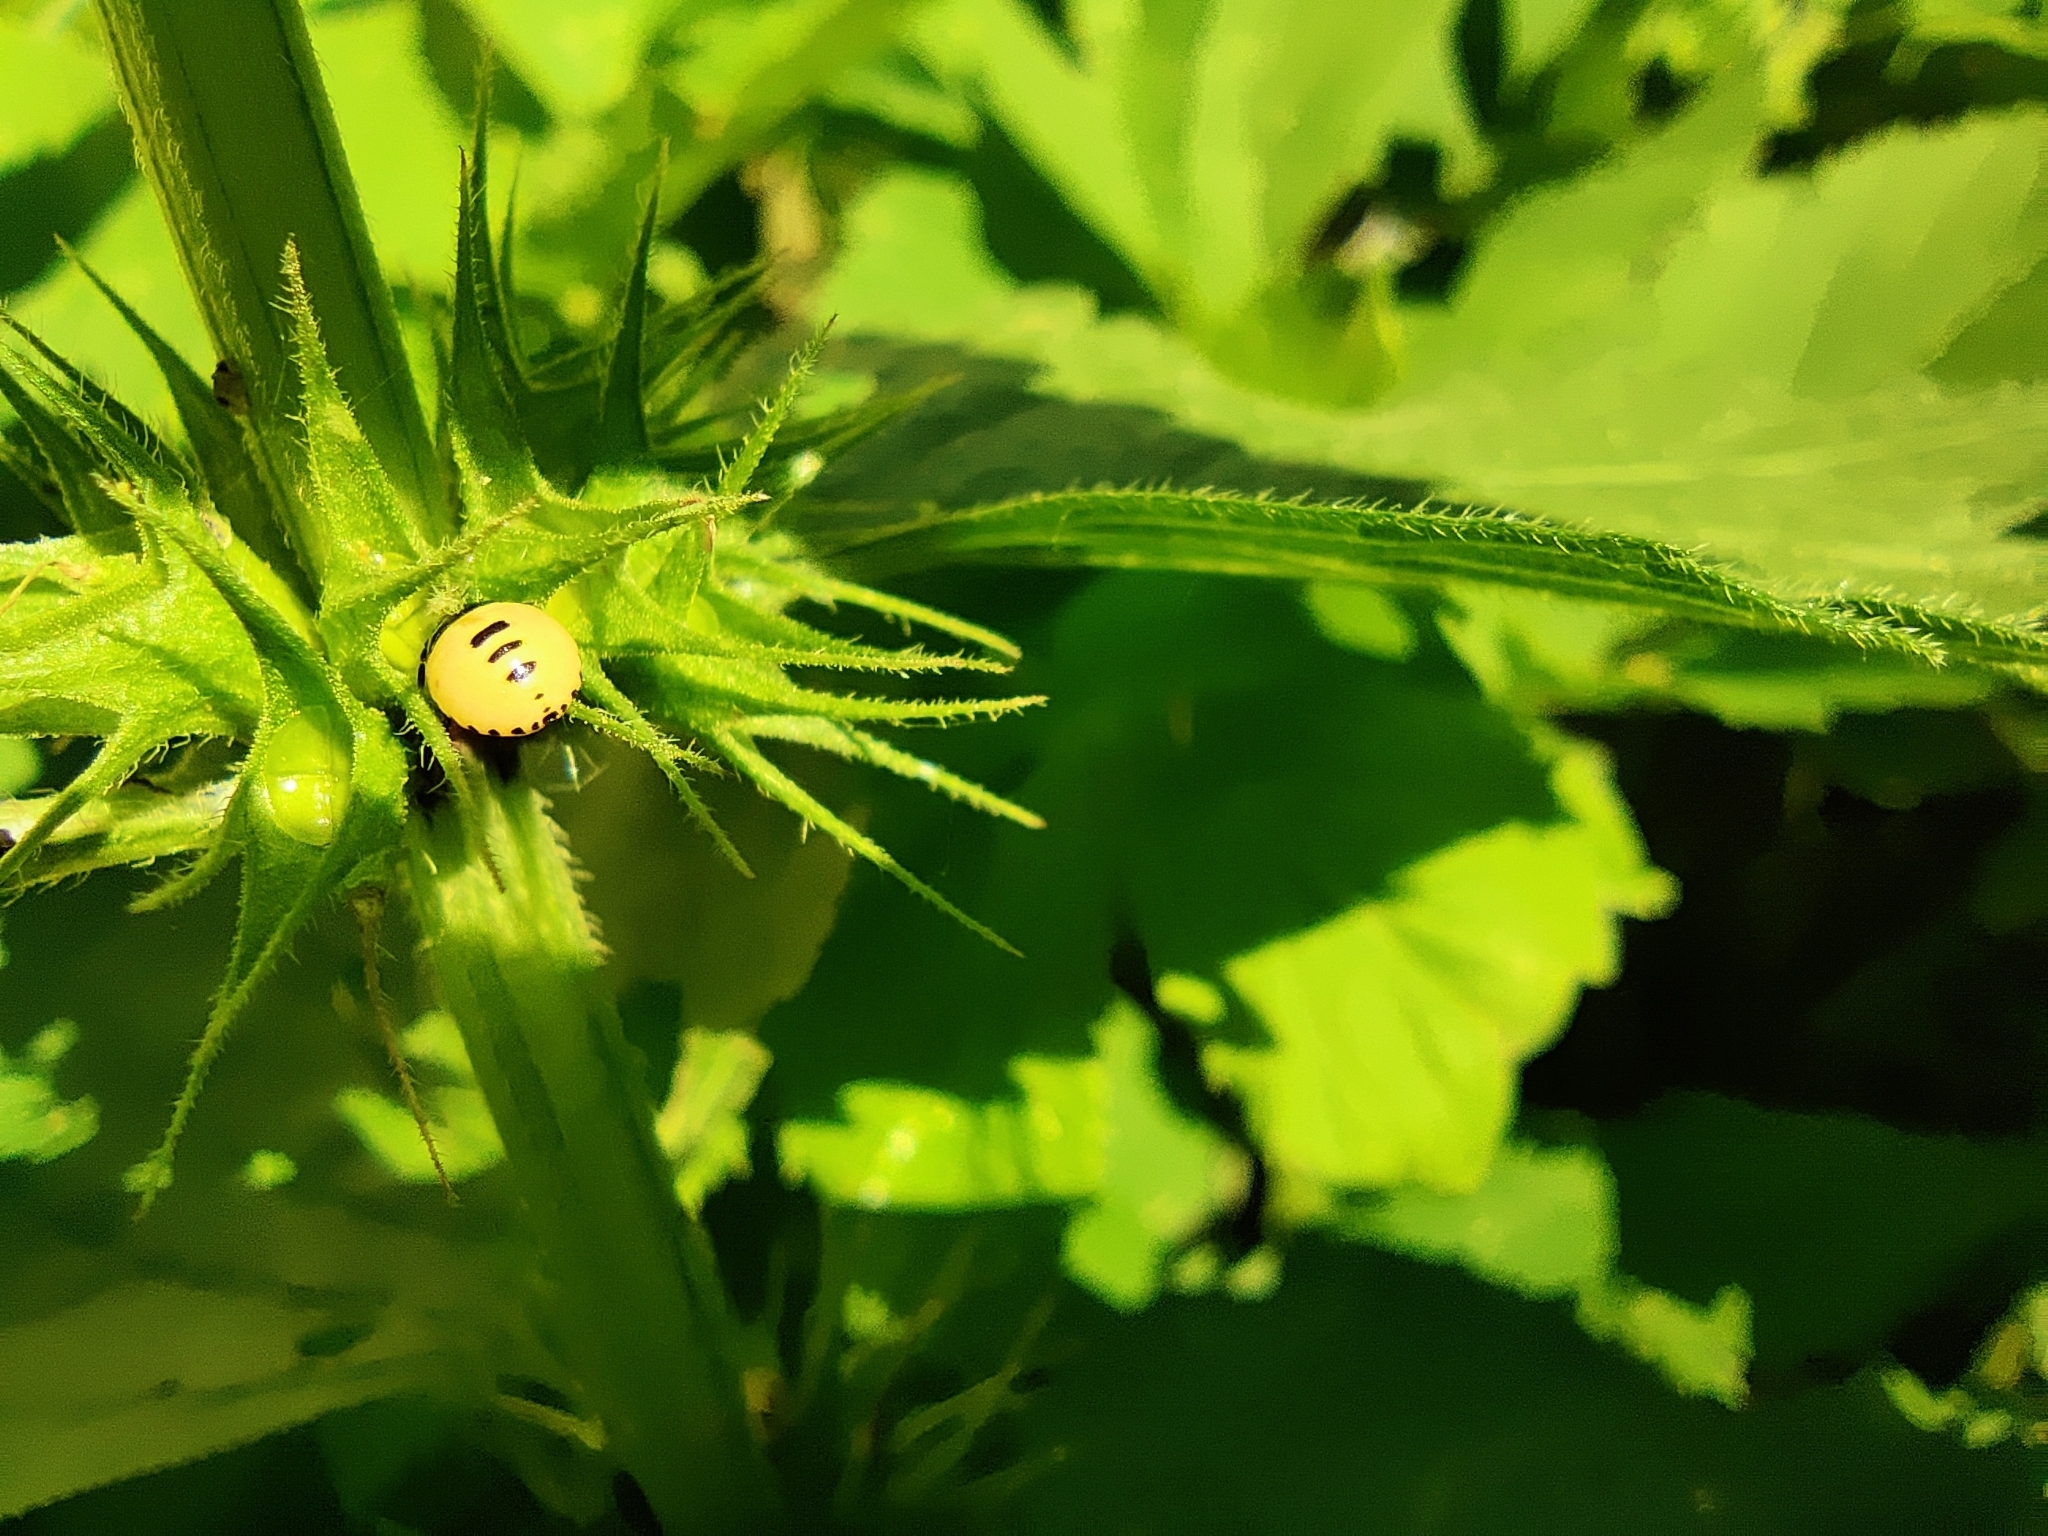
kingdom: Animalia
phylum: Arthropoda
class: Insecta
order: Hemiptera
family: Cydnidae
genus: Tritomegas
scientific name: Tritomegas bicolor
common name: Pied shieldbug
